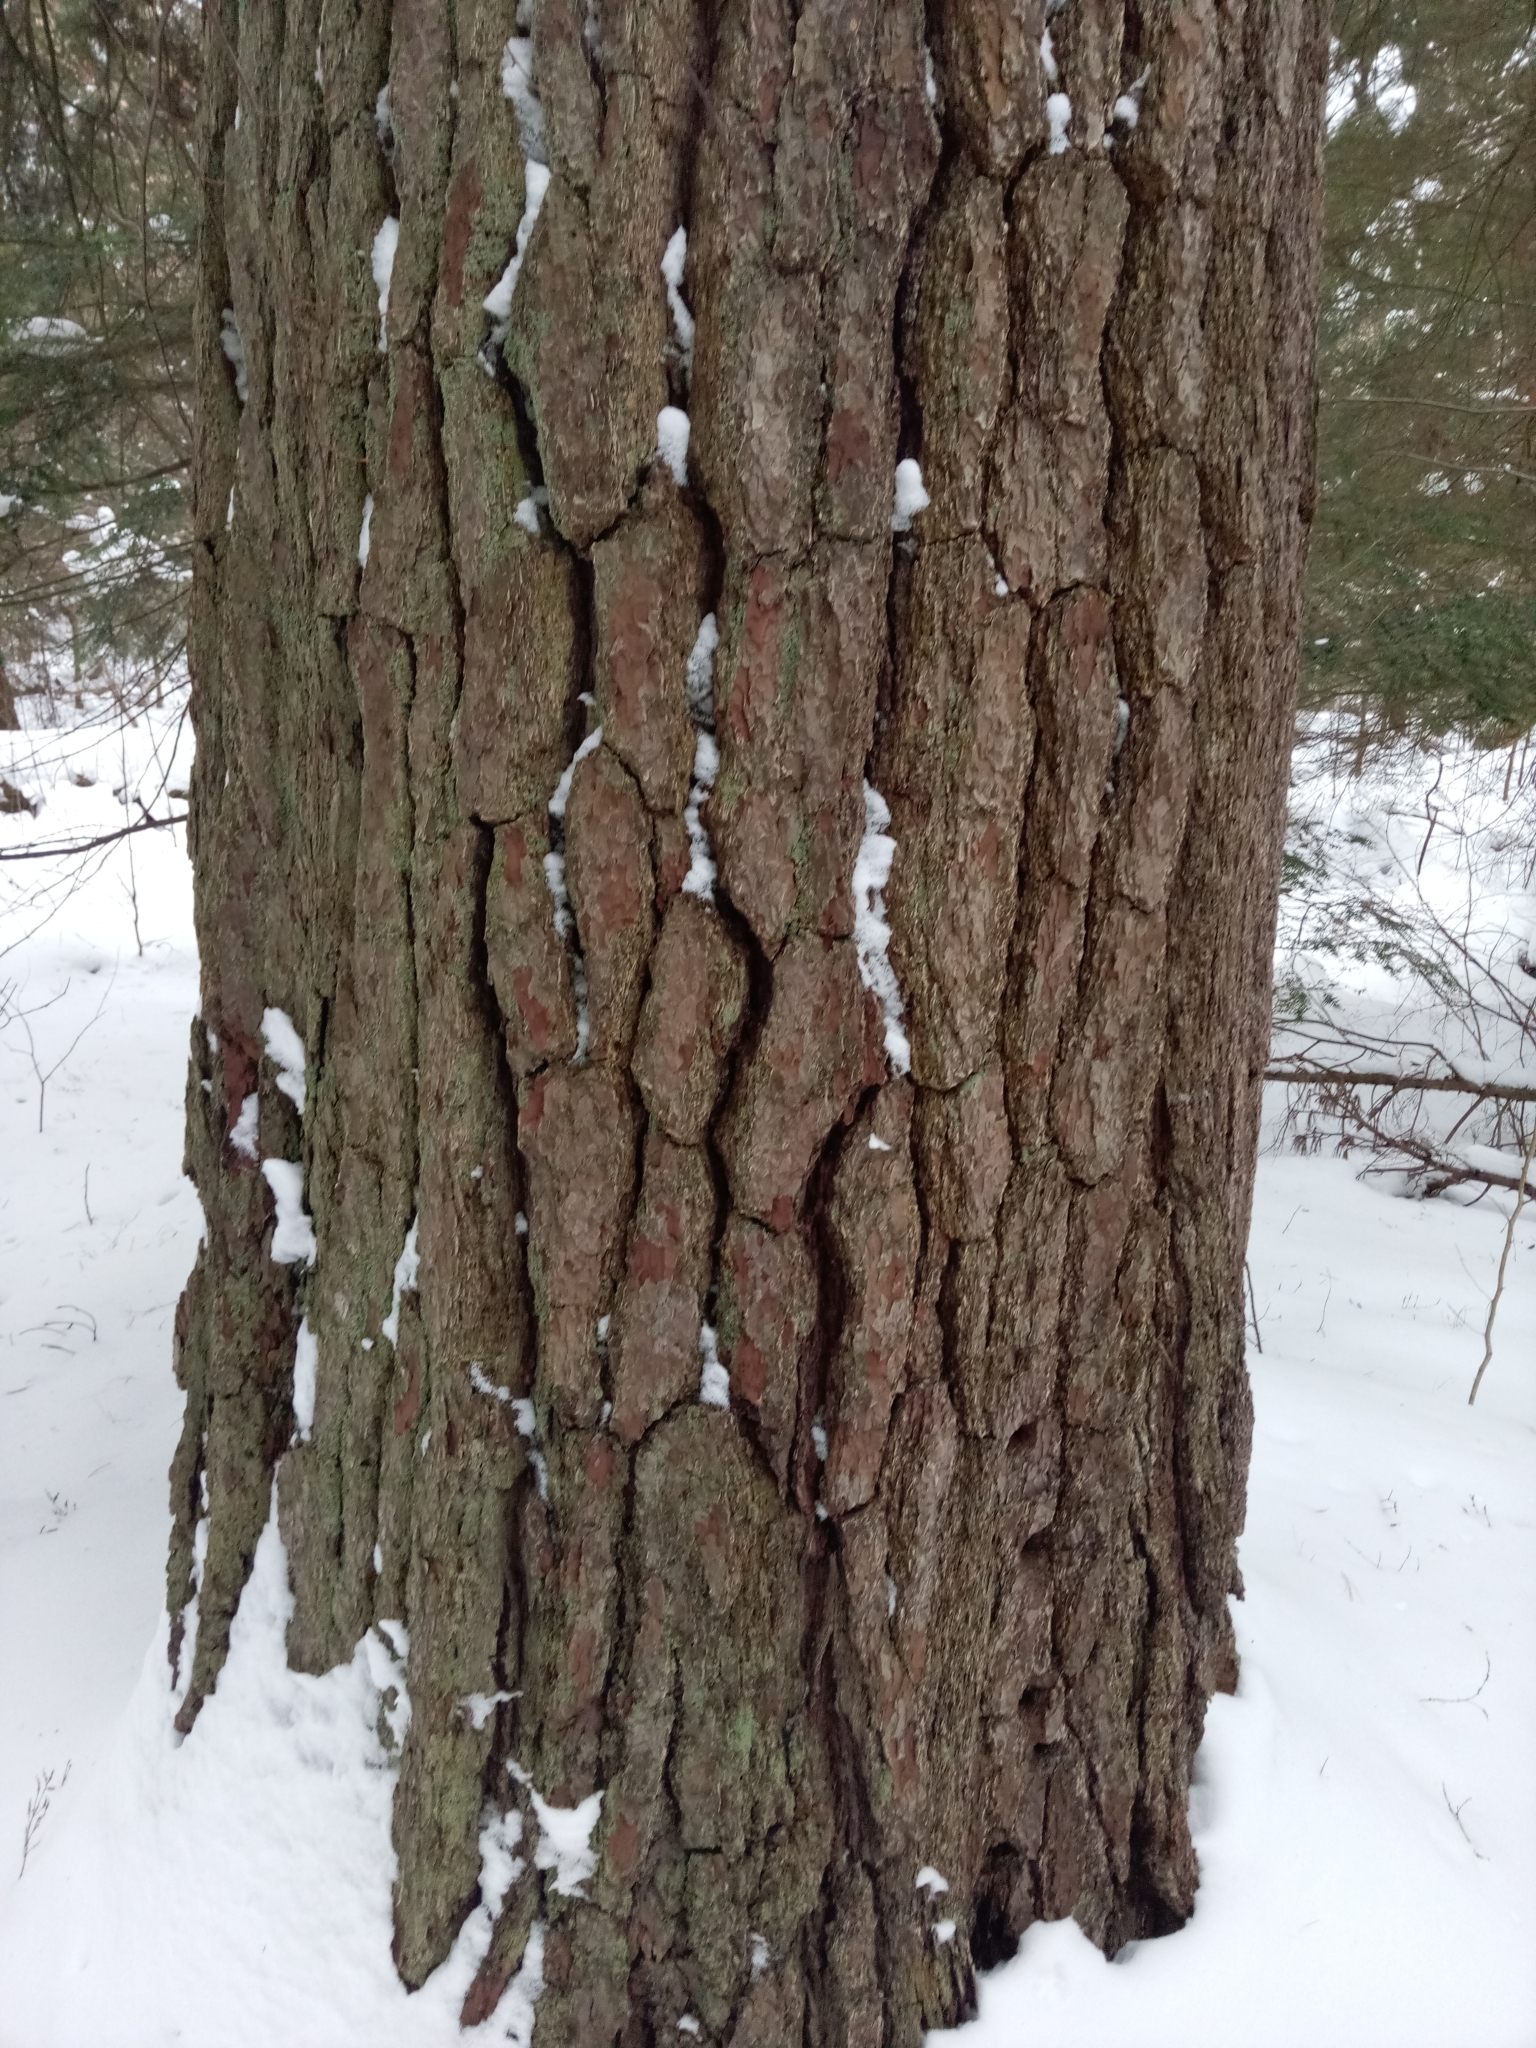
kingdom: Plantae
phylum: Tracheophyta
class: Pinopsida
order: Pinales
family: Pinaceae
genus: Pinus
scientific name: Pinus strobus
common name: Weymouth pine
